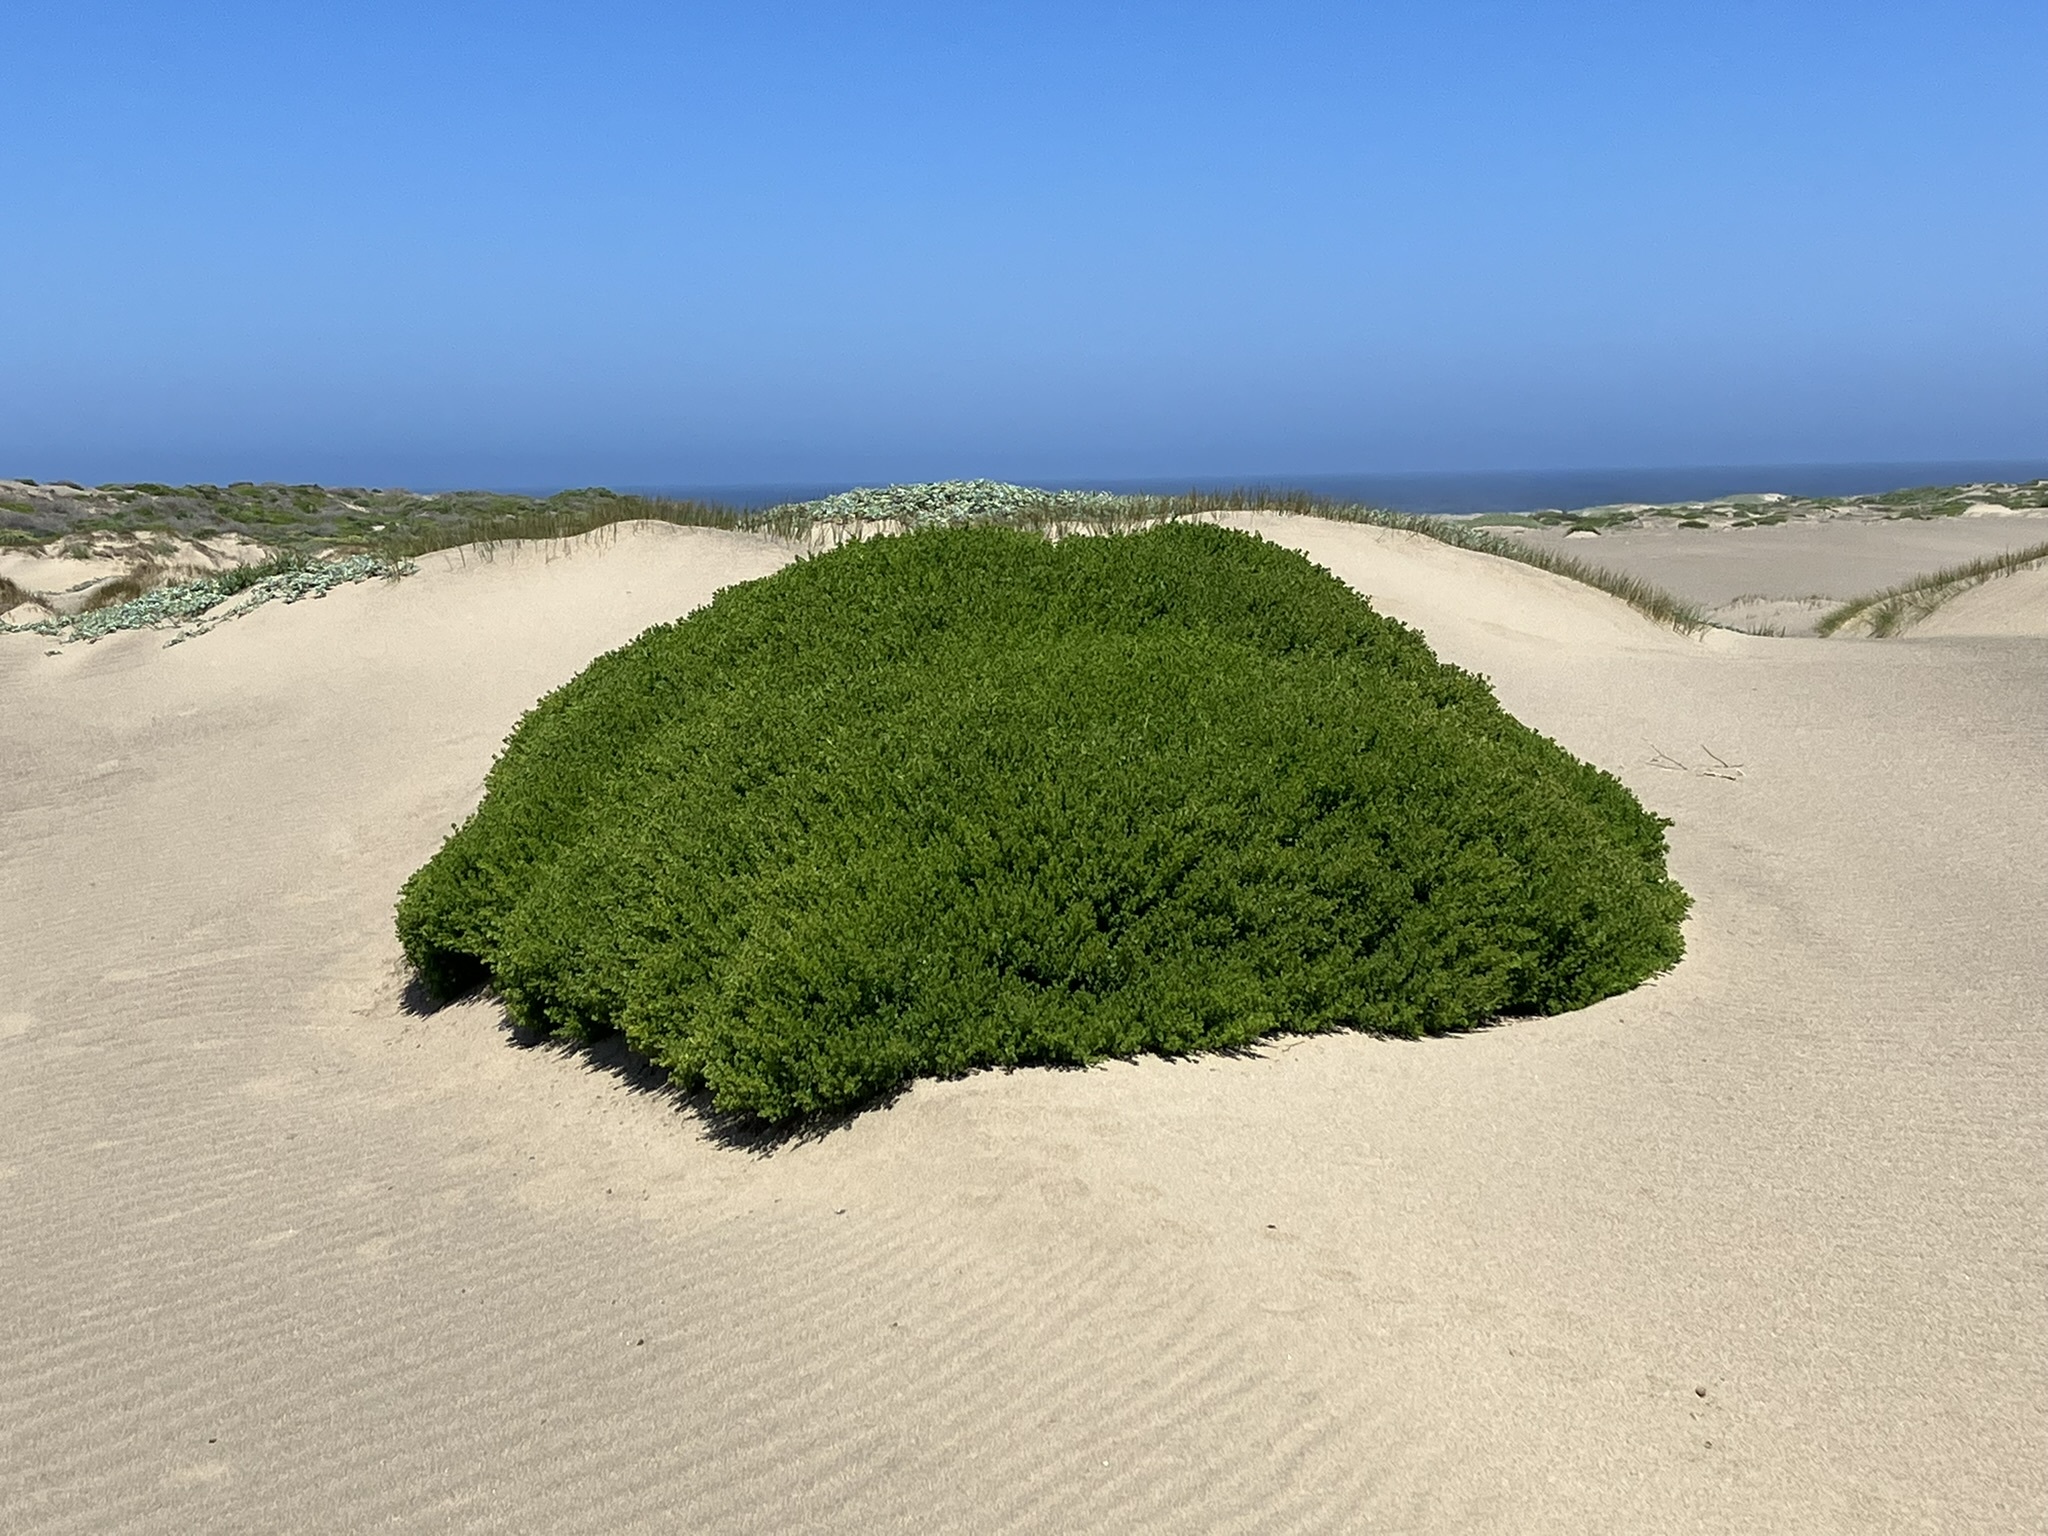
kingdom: Plantae
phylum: Tracheophyta
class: Magnoliopsida
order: Asterales
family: Asteraceae
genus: Baccharis
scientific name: Baccharis pilularis
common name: Coyotebrush
